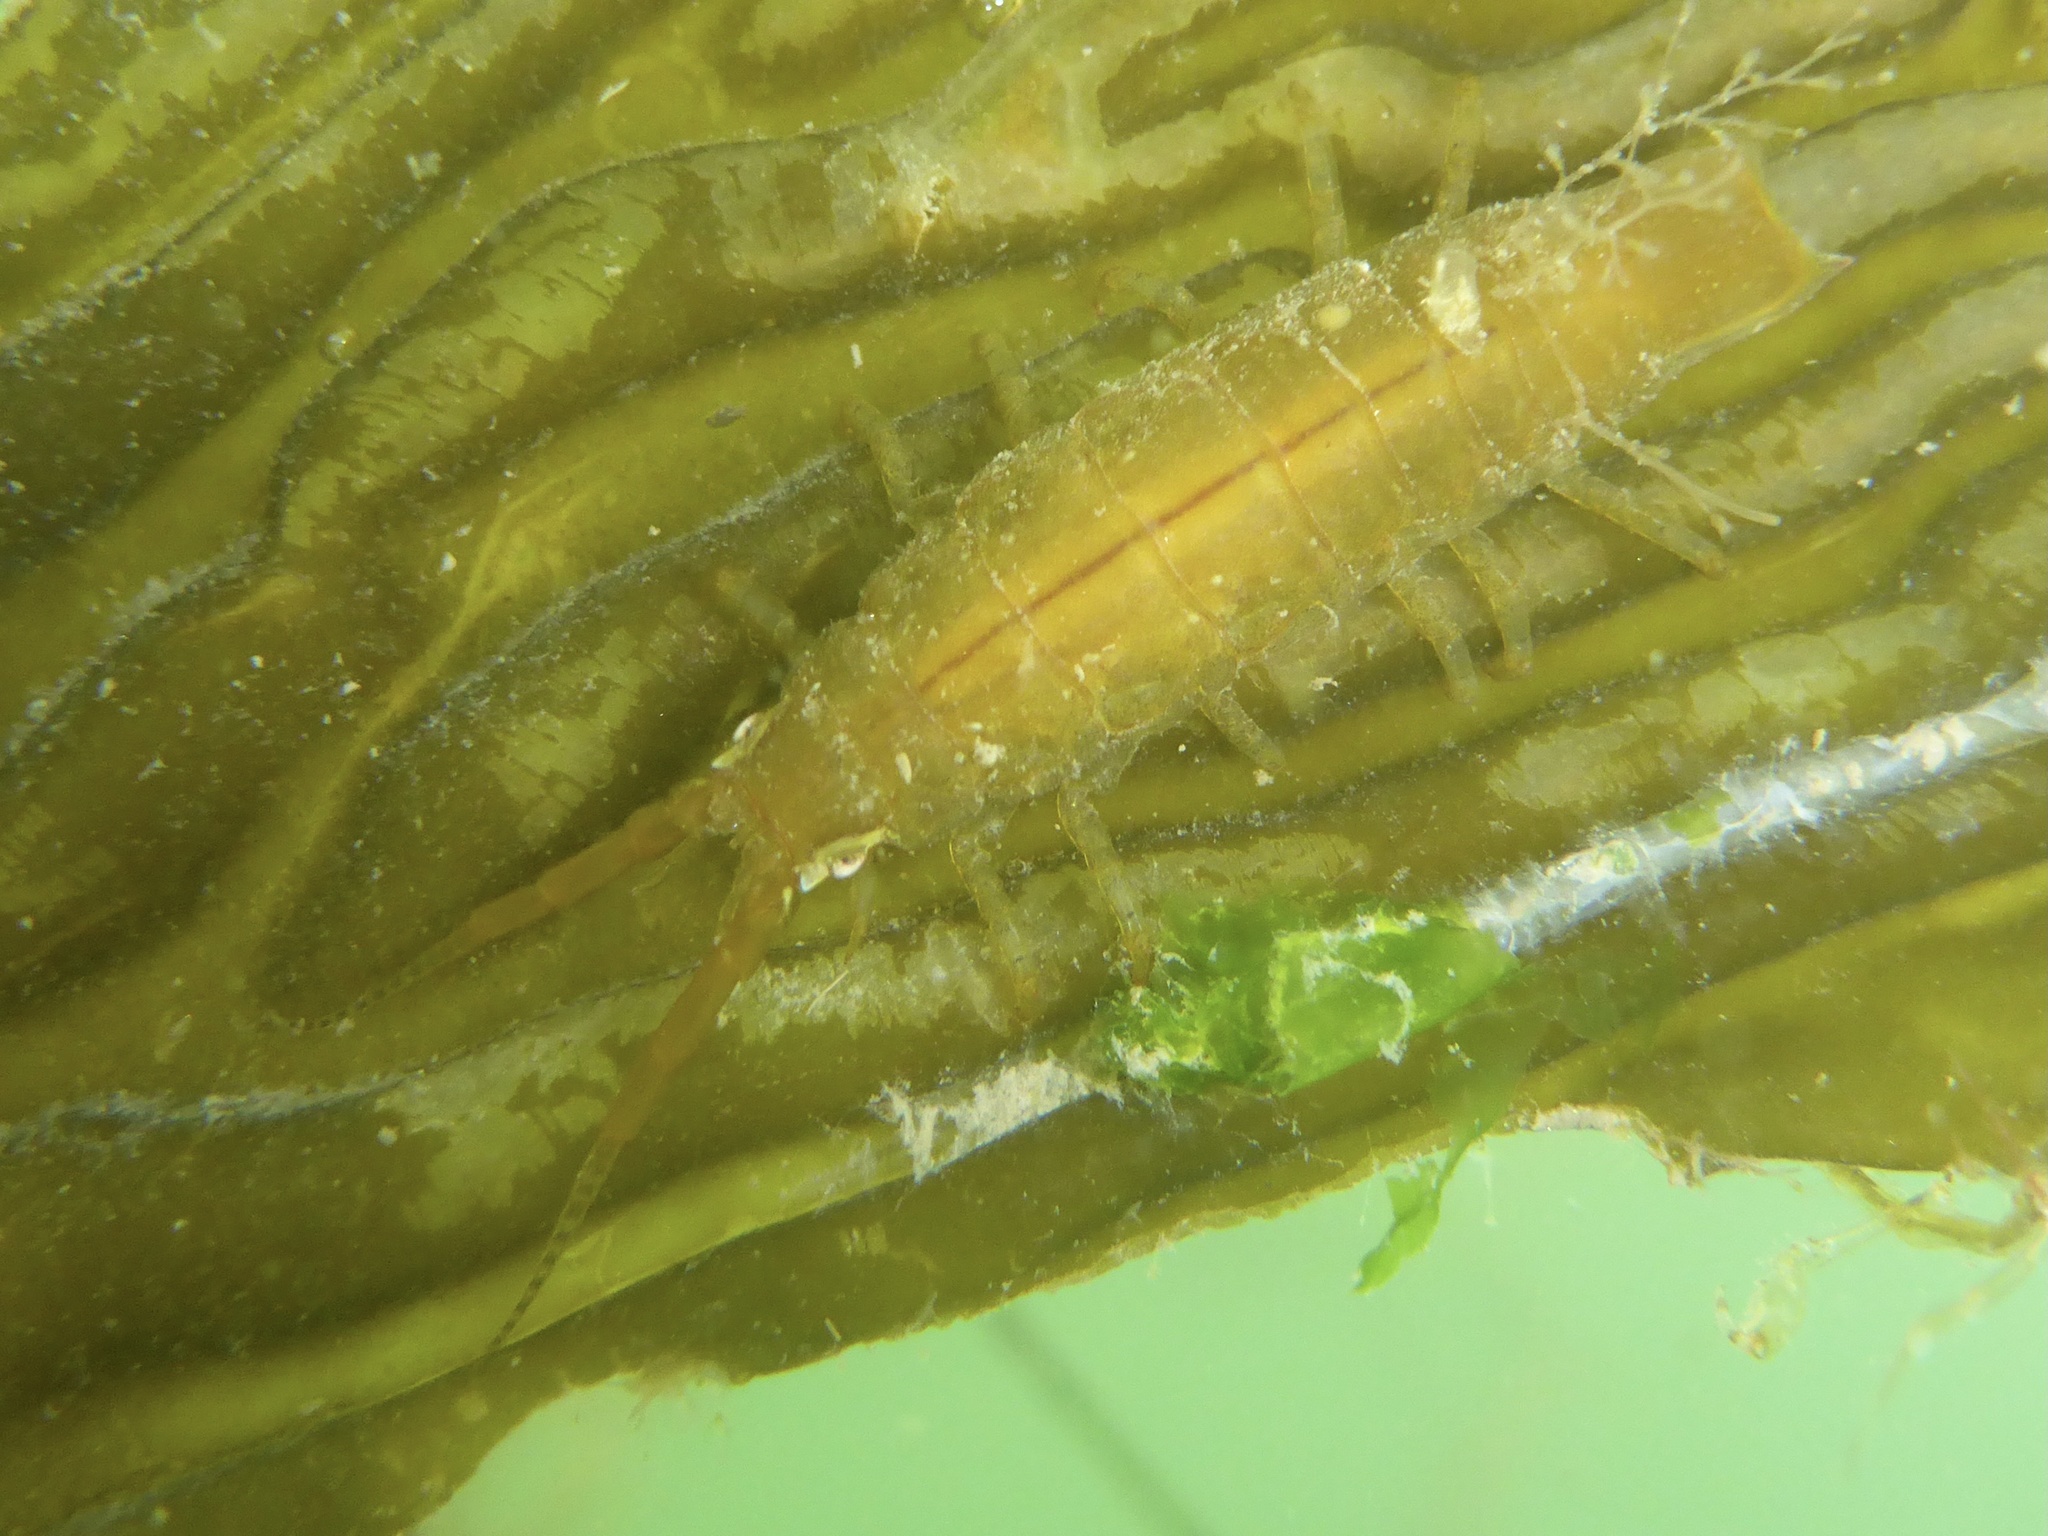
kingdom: Animalia
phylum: Arthropoda
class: Malacostraca
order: Isopoda
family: Idoteidae
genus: Pentidotea
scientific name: Pentidotea resecata
